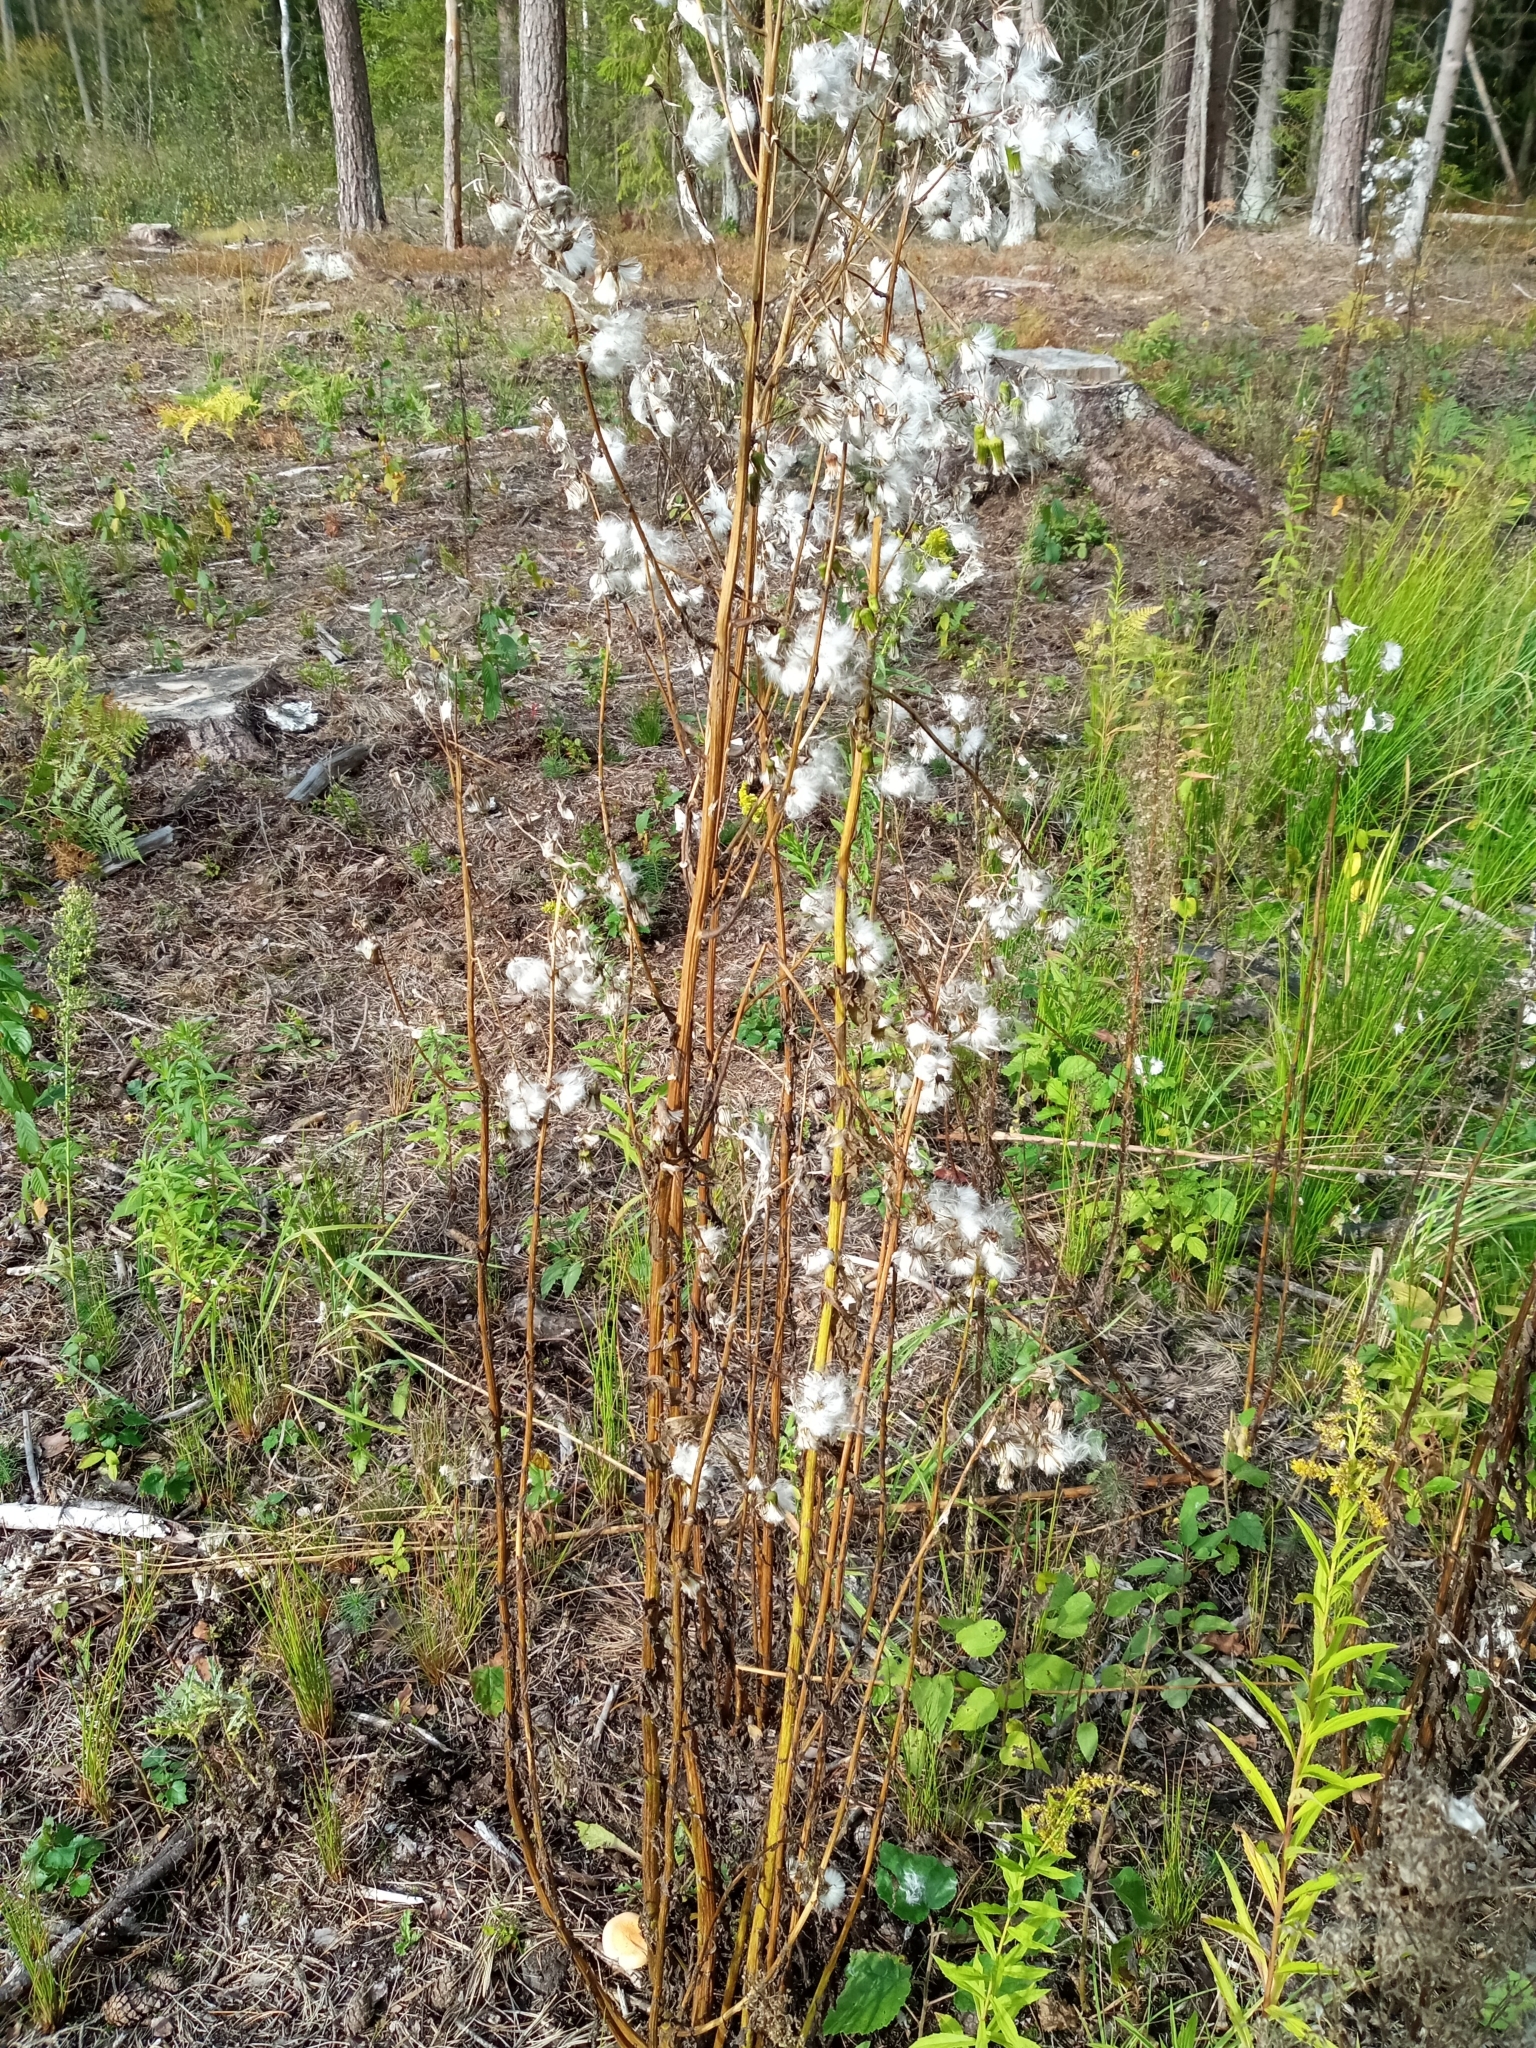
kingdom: Plantae
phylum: Tracheophyta
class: Magnoliopsida
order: Asterales
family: Asteraceae
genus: Erechtites
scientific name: Erechtites hieraciifolius
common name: American burnweed
